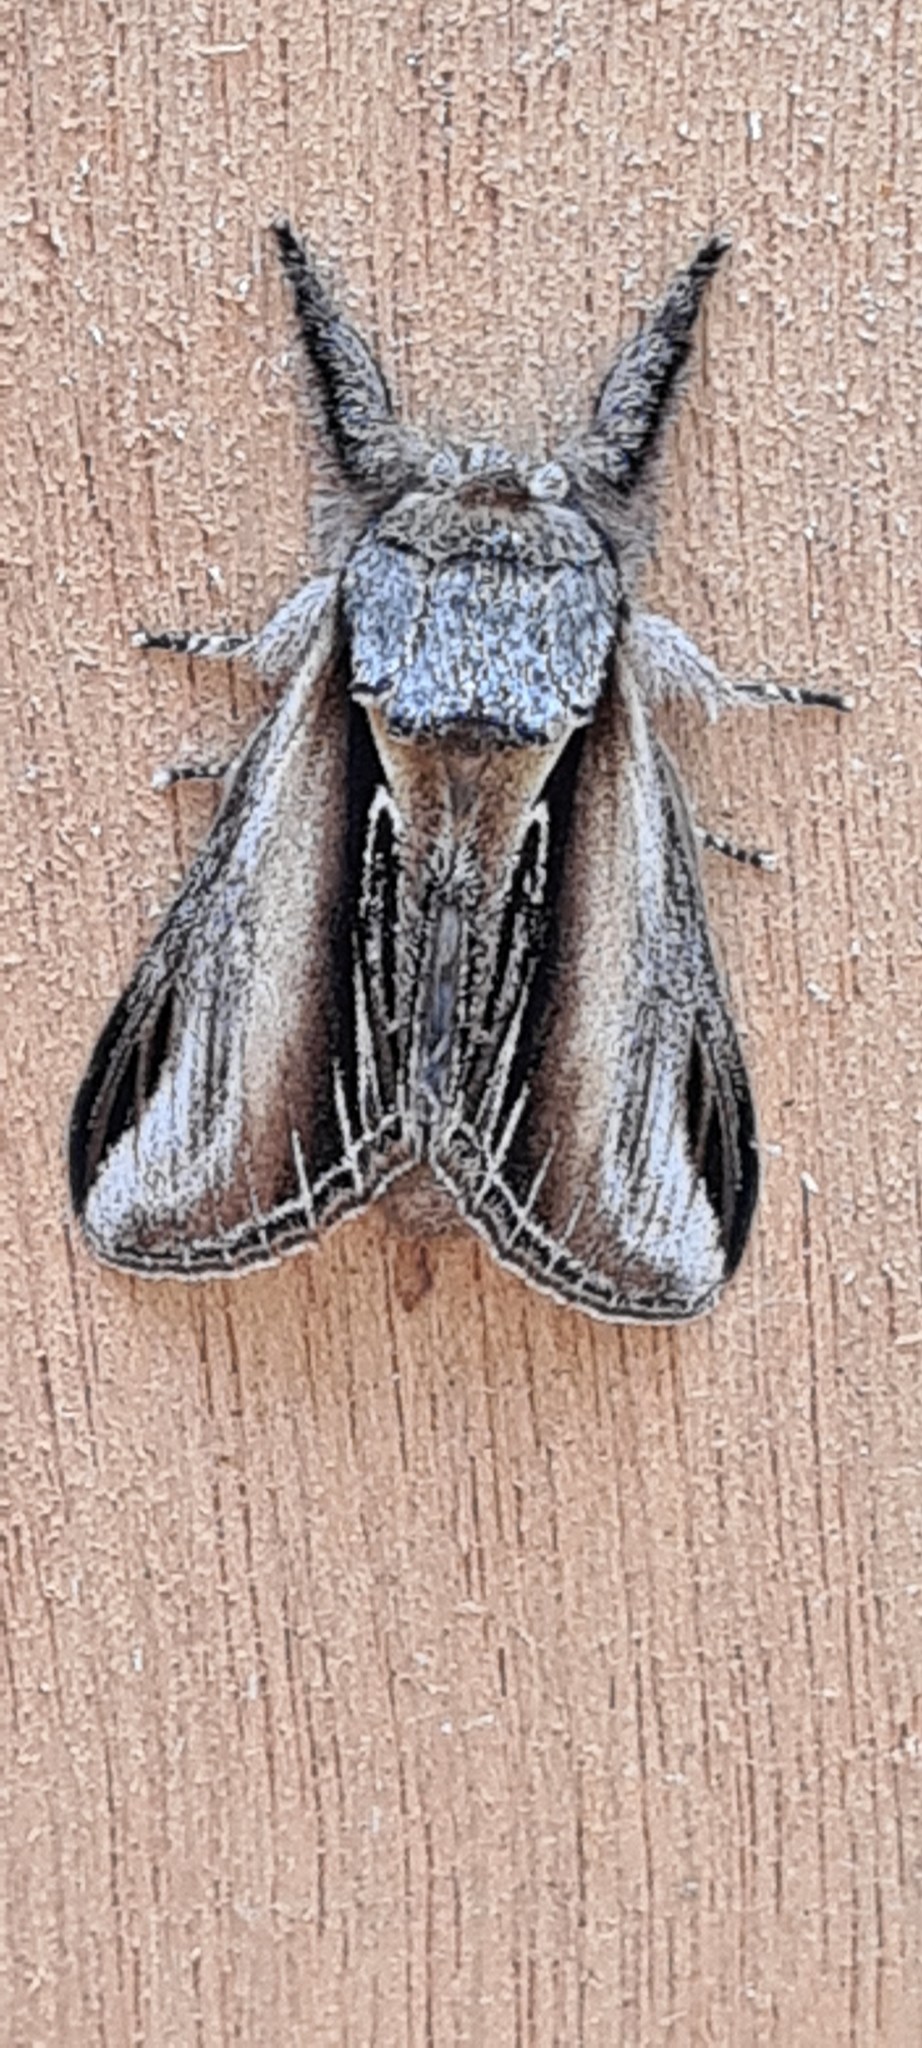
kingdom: Animalia
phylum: Arthropoda
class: Insecta
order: Lepidoptera
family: Notodontidae
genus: Pheosia
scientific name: Pheosia tremula
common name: Swallow prominent
